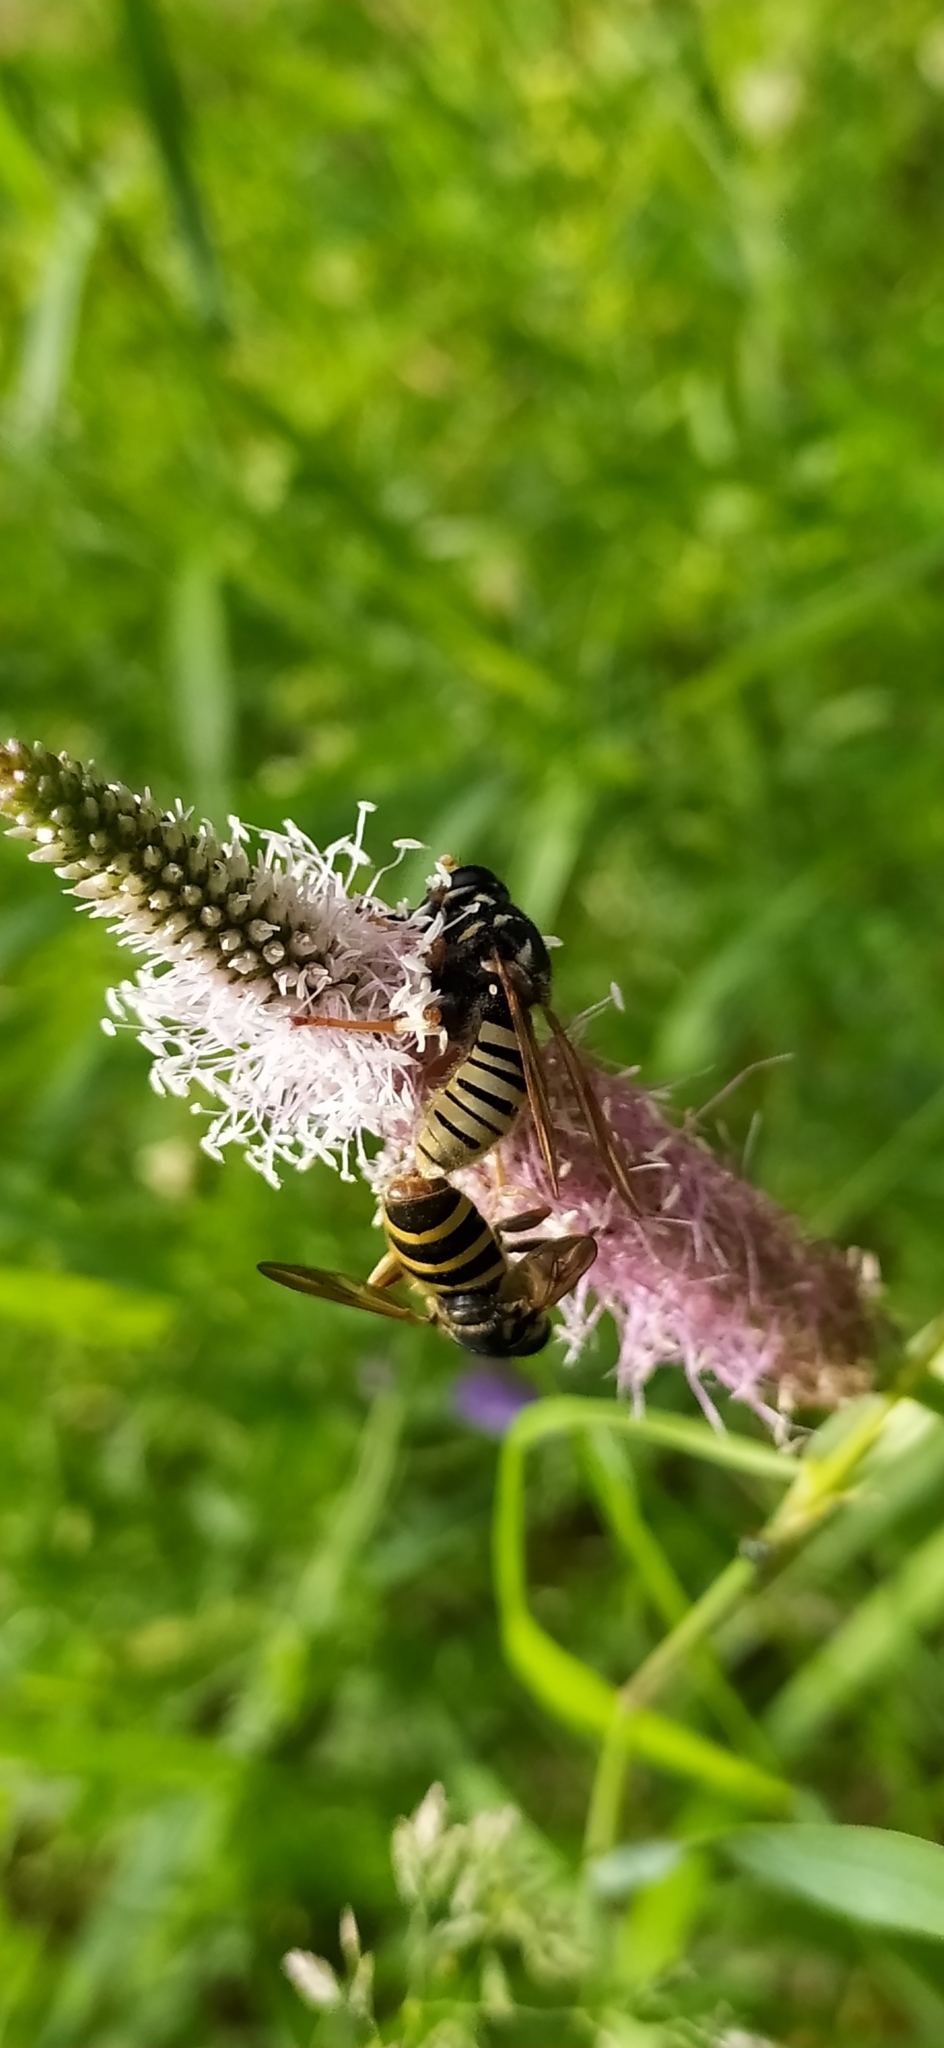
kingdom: Animalia
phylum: Arthropoda
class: Insecta
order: Diptera
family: Syrphidae
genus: Temnostoma
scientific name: Temnostoma vespiforme
